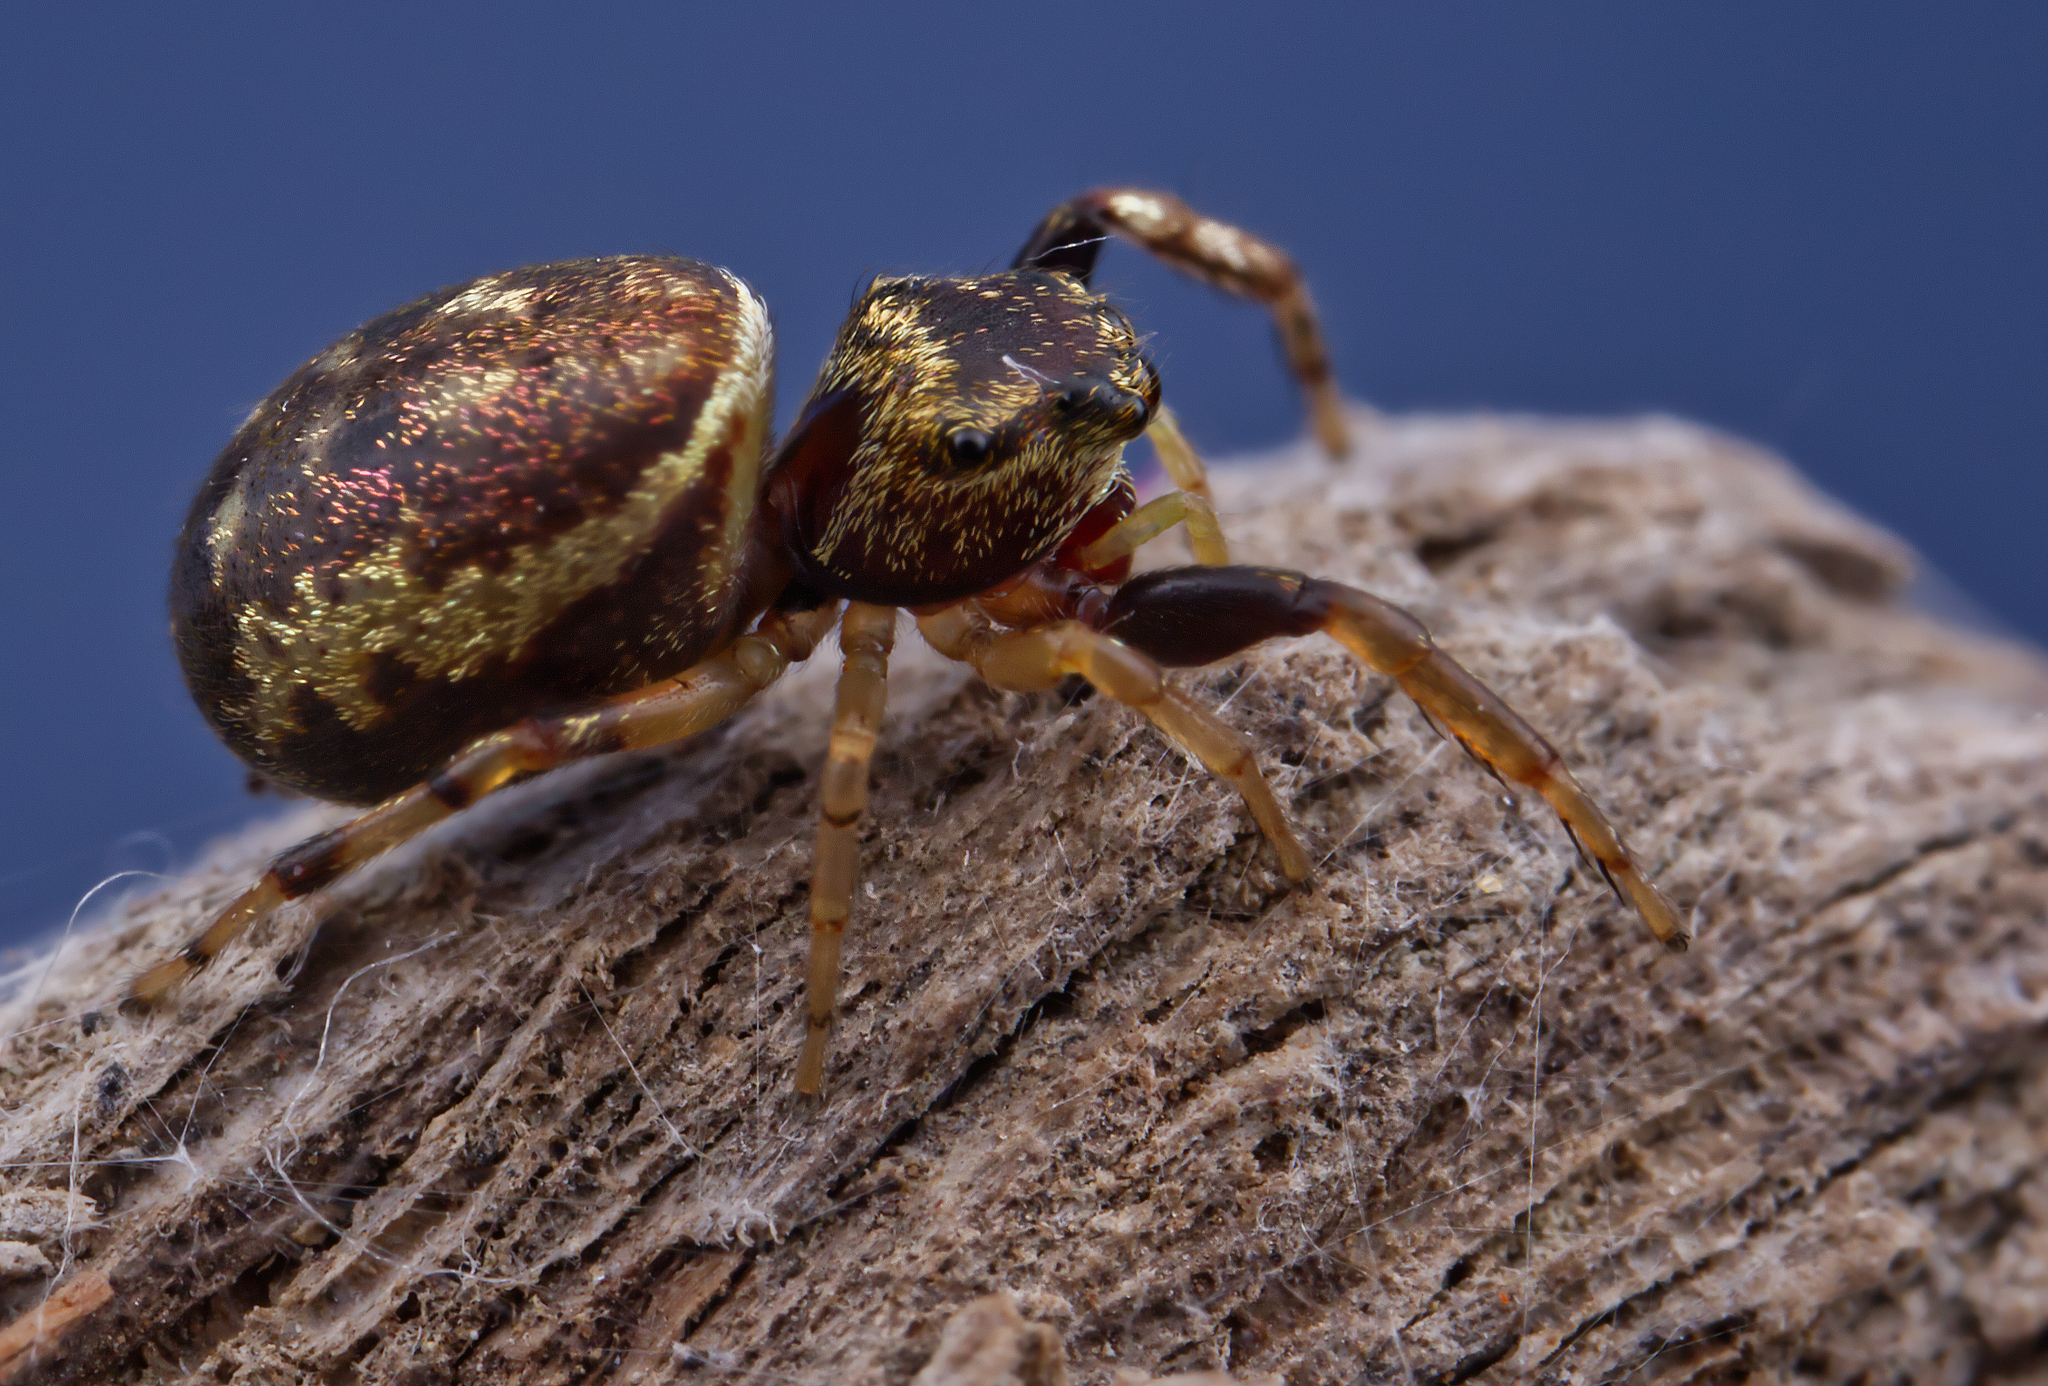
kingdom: Animalia
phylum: Arthropoda
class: Arachnida
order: Araneae
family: Salticidae
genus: Zygoballus
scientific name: Zygoballus rufipes
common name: Jumping spiders
